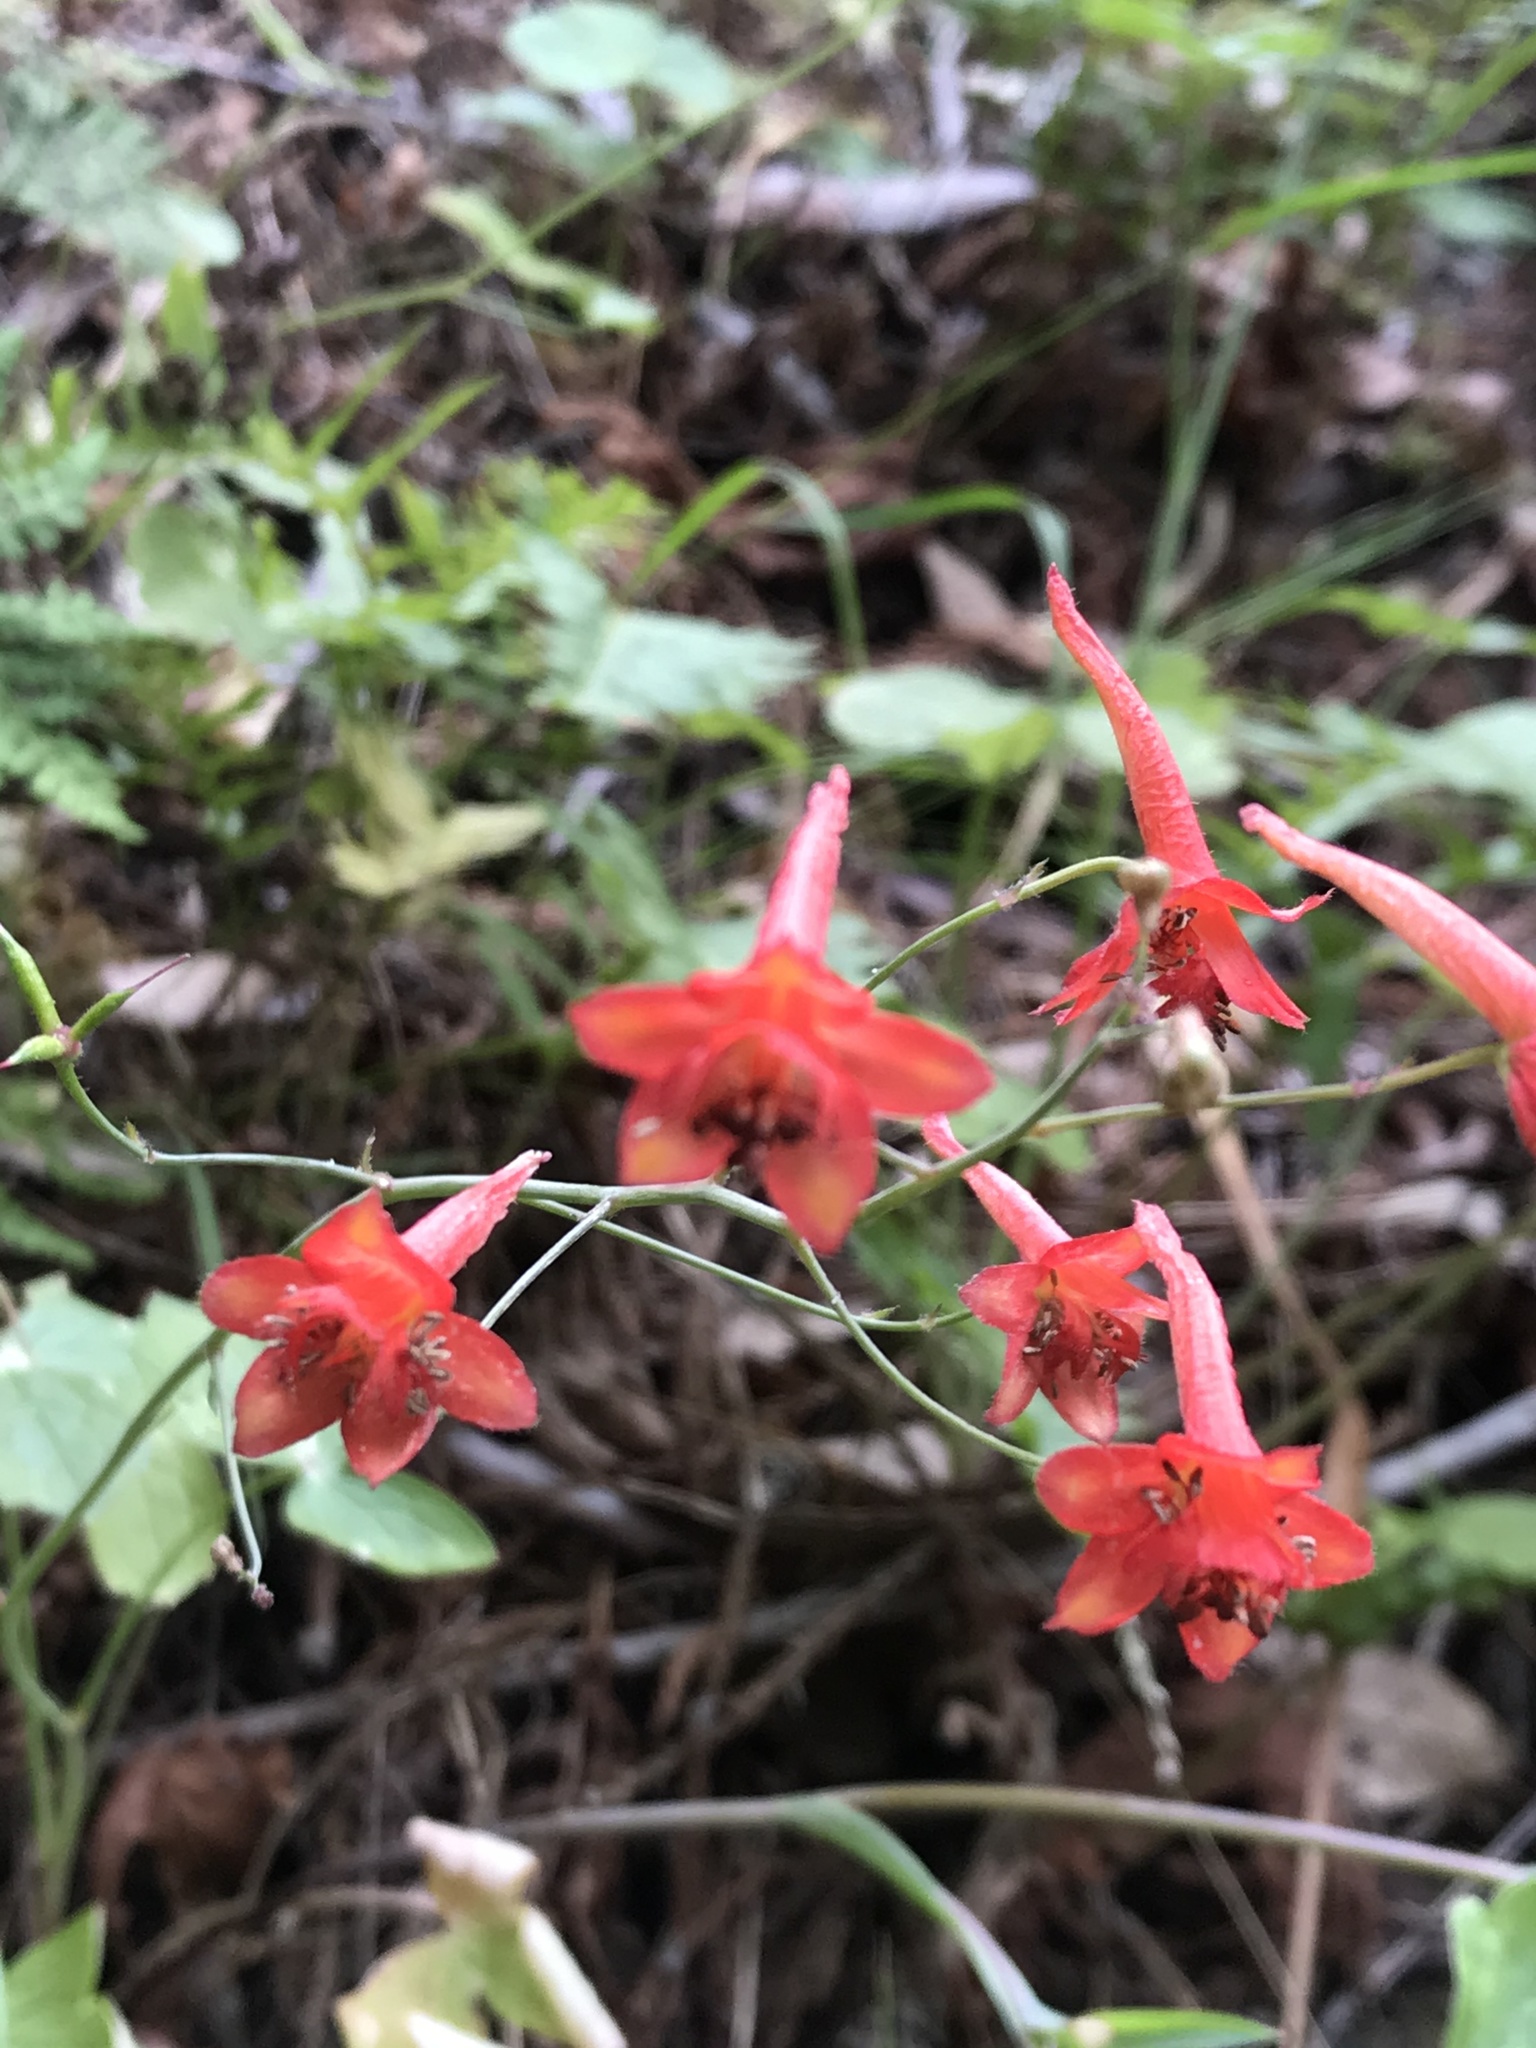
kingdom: Plantae
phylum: Tracheophyta
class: Magnoliopsida
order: Ranunculales
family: Ranunculaceae
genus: Delphinium
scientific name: Delphinium nudicaule
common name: Red larkspur
